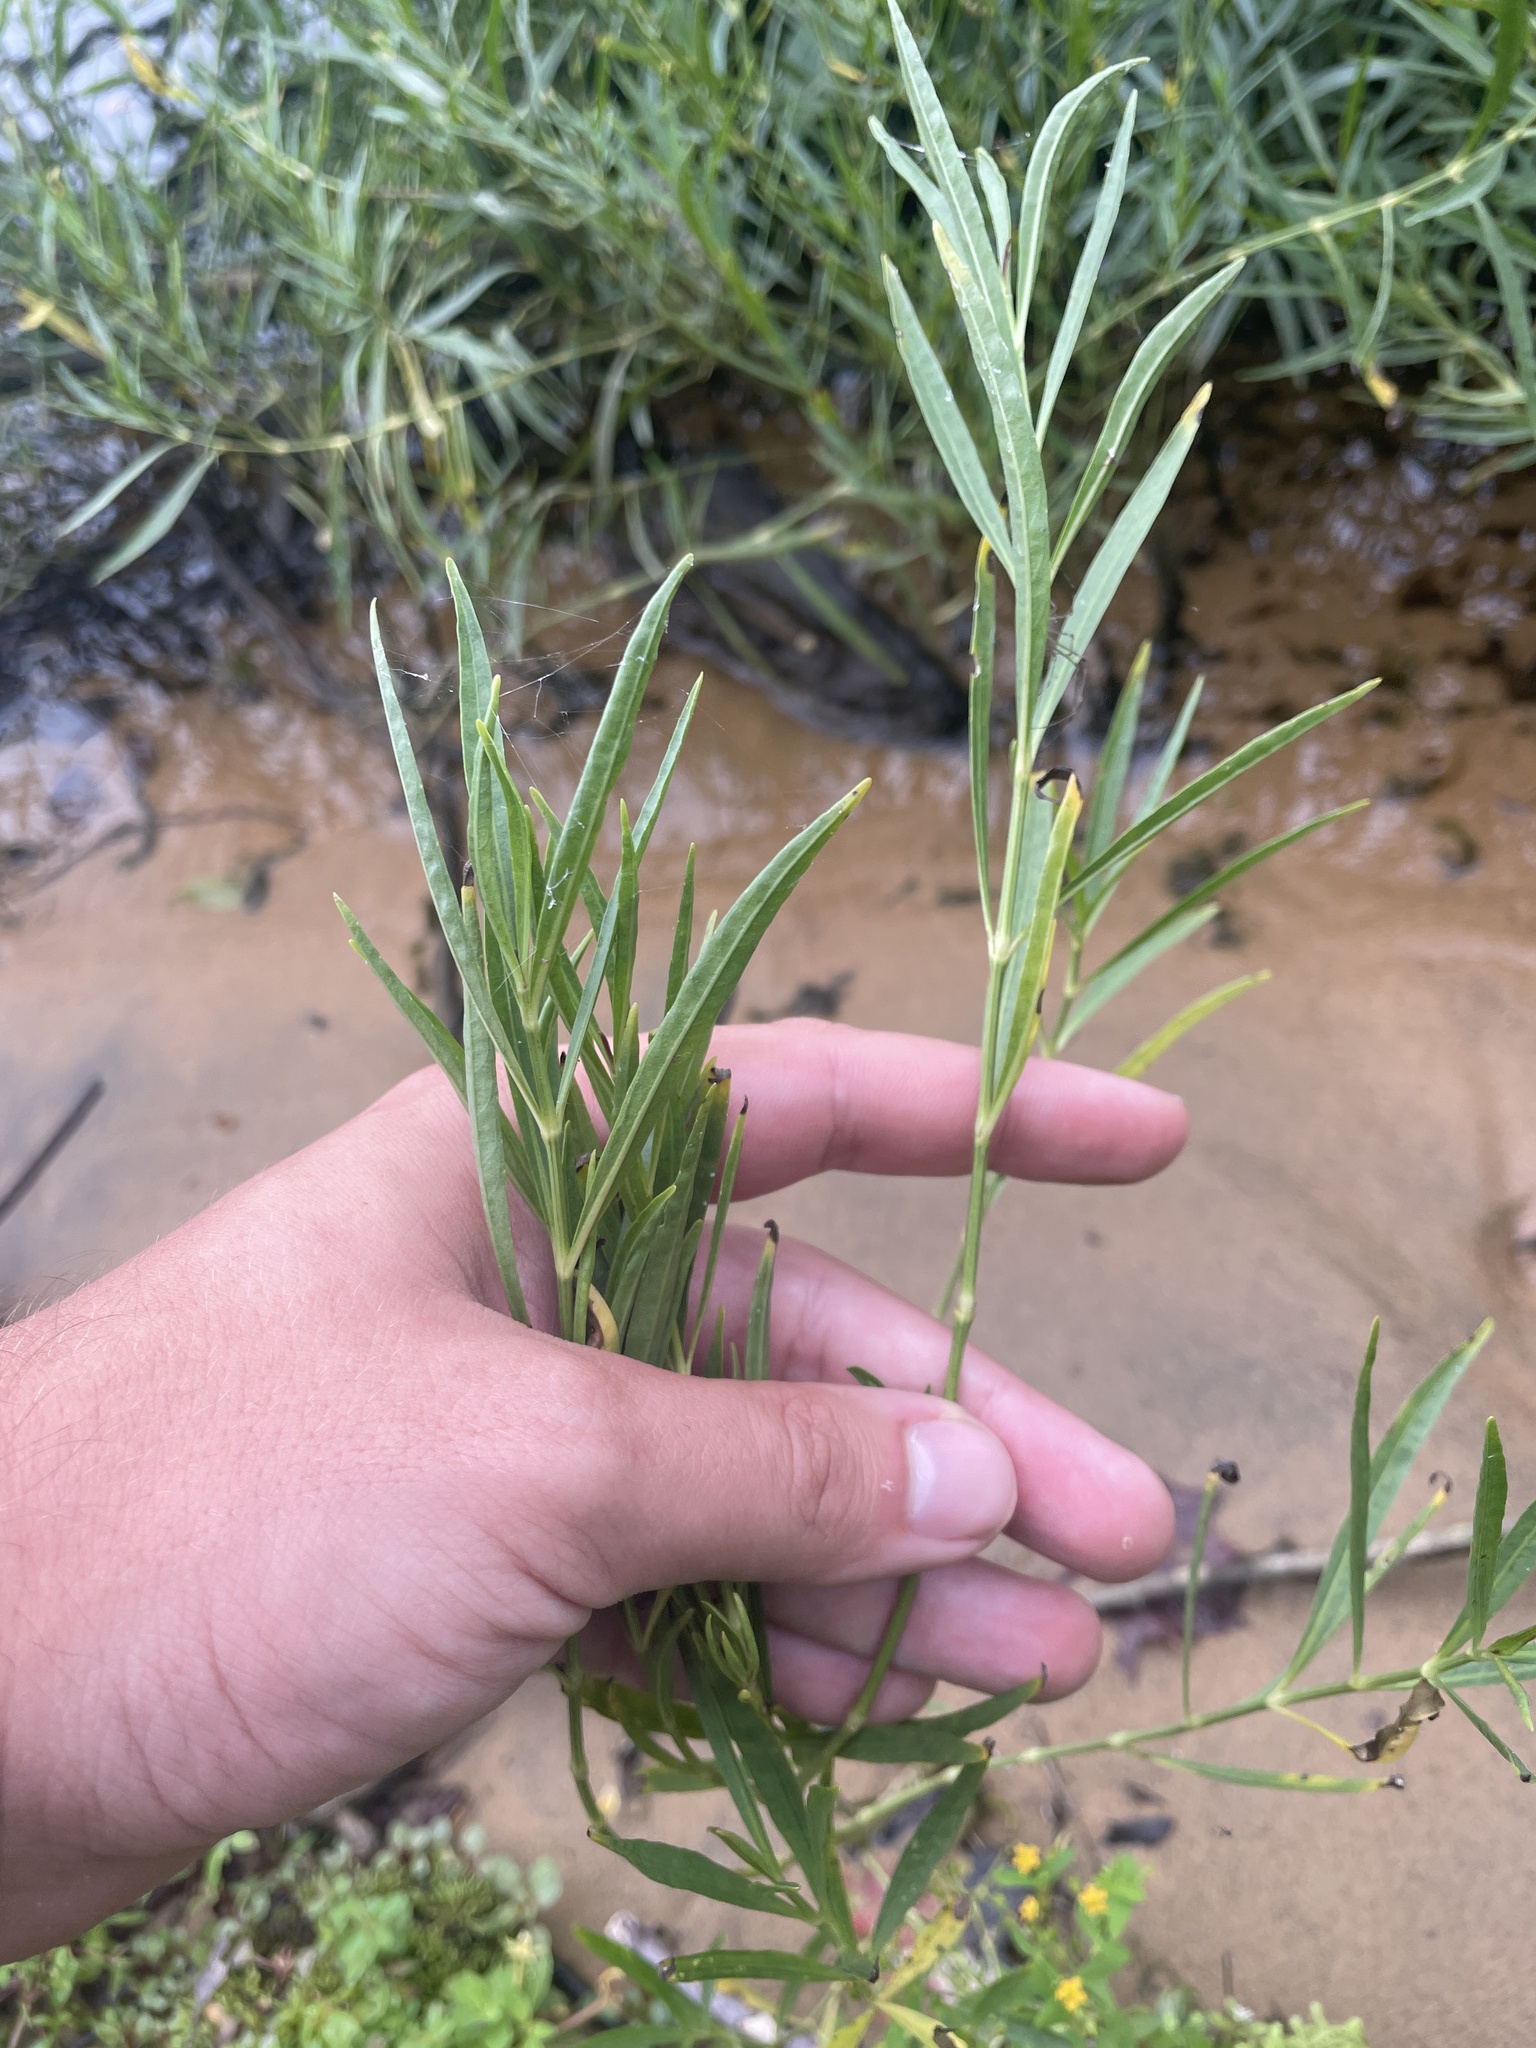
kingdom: Plantae
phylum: Tracheophyta
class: Magnoliopsida
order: Lamiales
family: Acanthaceae
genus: Dianthera
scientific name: Dianthera americana
